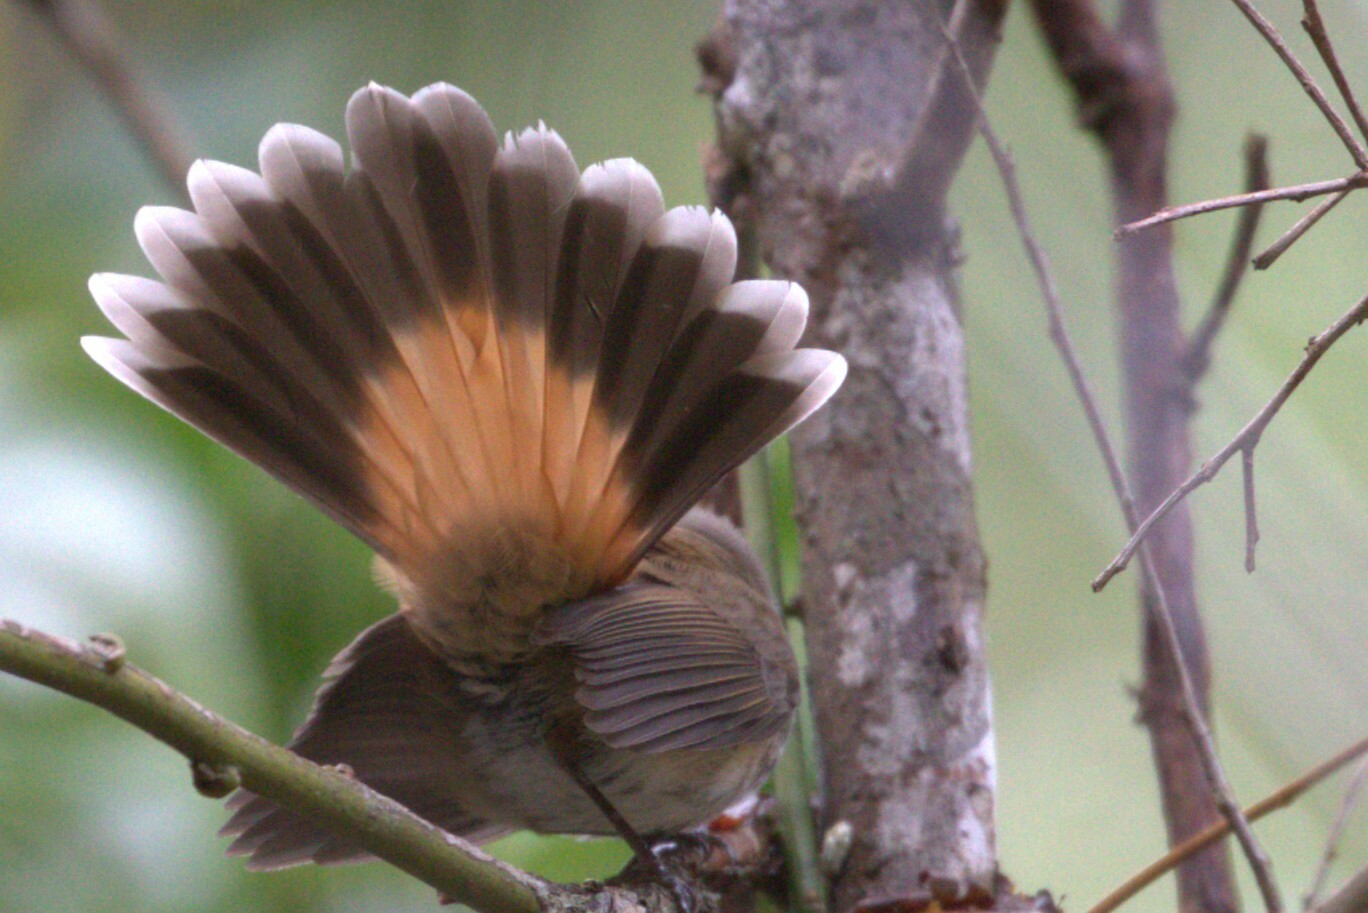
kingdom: Animalia
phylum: Chordata
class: Aves
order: Passeriformes
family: Rhipiduridae
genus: Rhipidura
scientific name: Rhipidura rufifrons
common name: Rufous fantail
